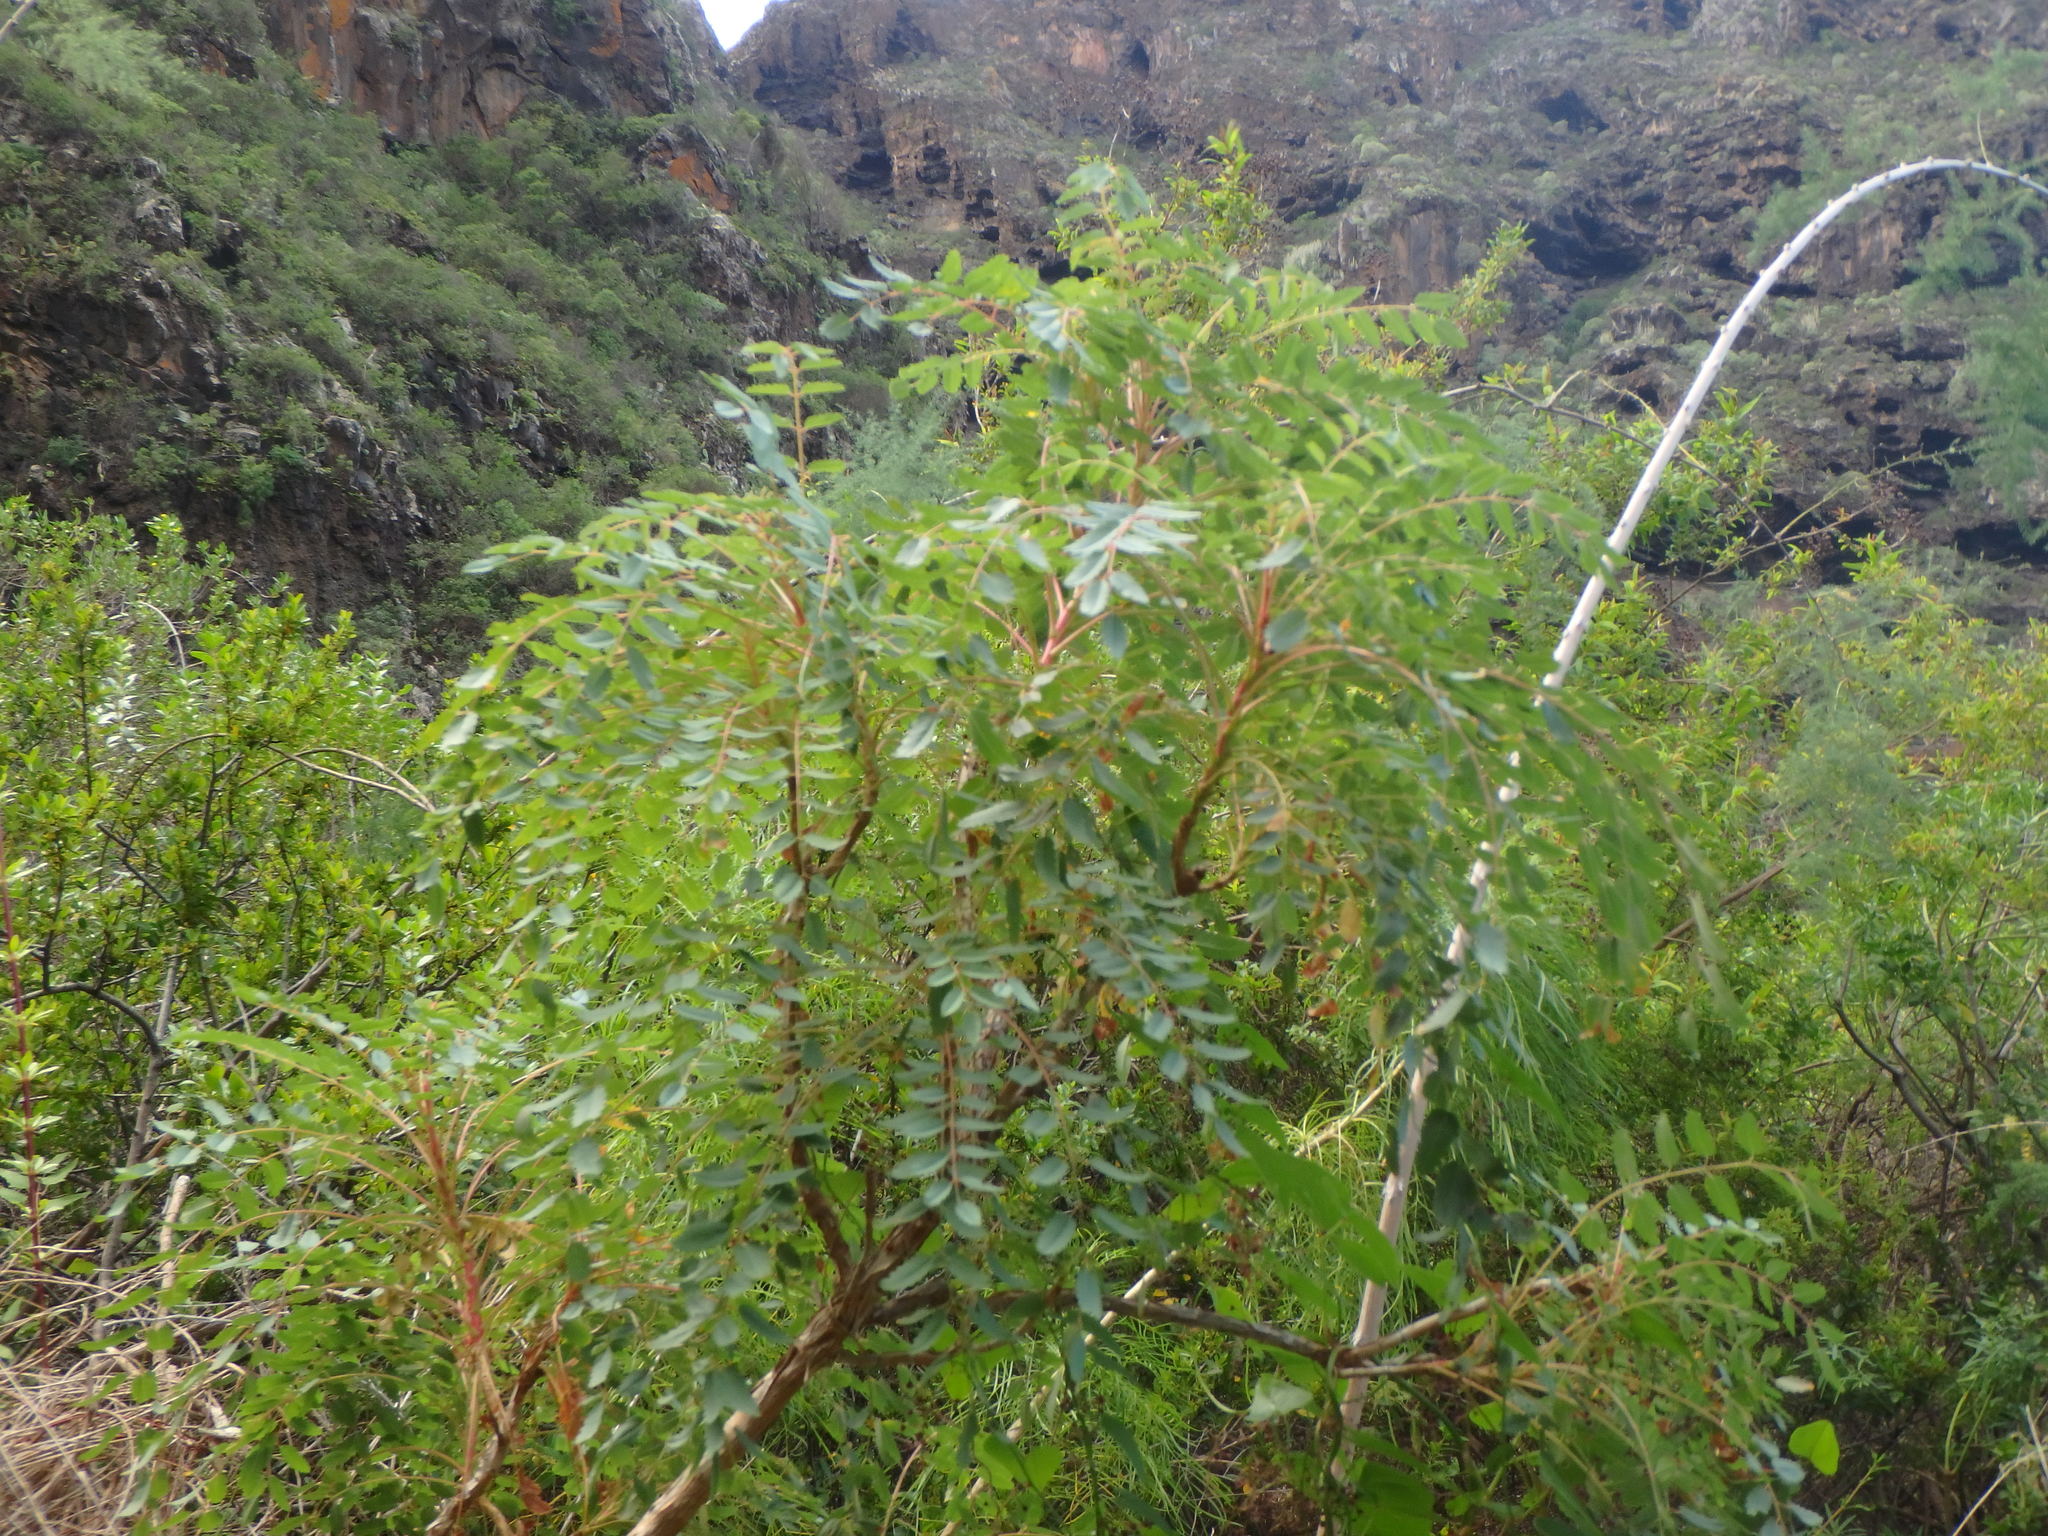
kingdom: Plantae
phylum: Tracheophyta
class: Magnoliopsida
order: Rosales
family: Rosaceae
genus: Marcetella
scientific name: Marcetella moquiniana
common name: Burnet tree
